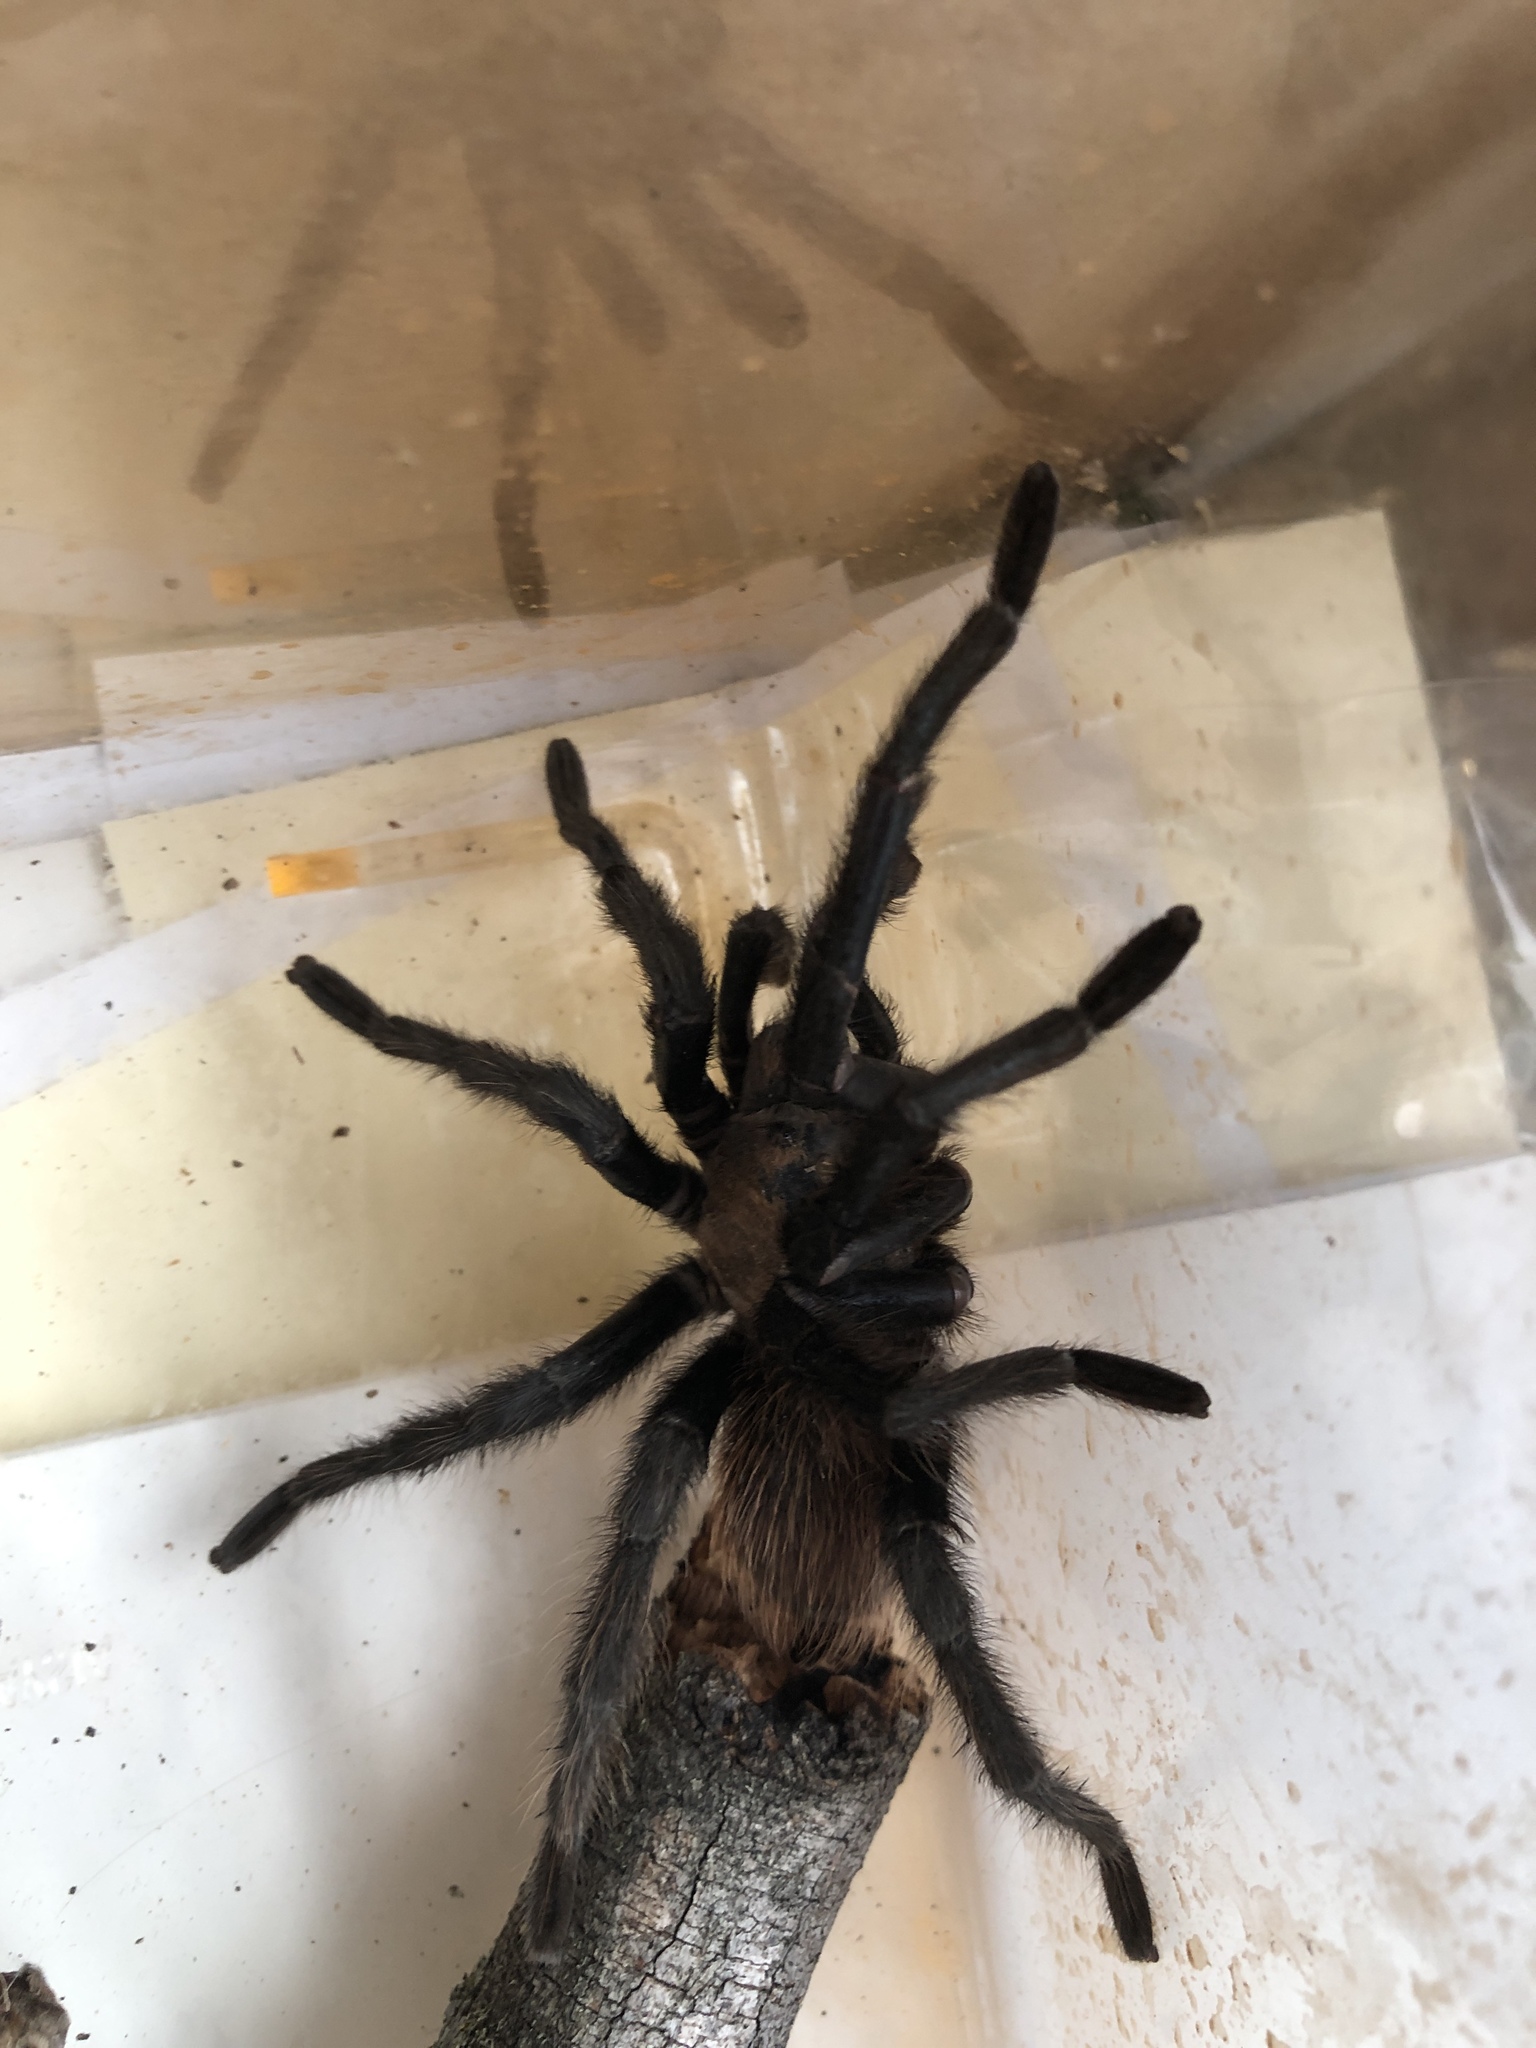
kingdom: Animalia
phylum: Arthropoda
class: Arachnida
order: Araneae
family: Theraphosidae
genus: Aphonopelma
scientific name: Aphonopelma hentzi
